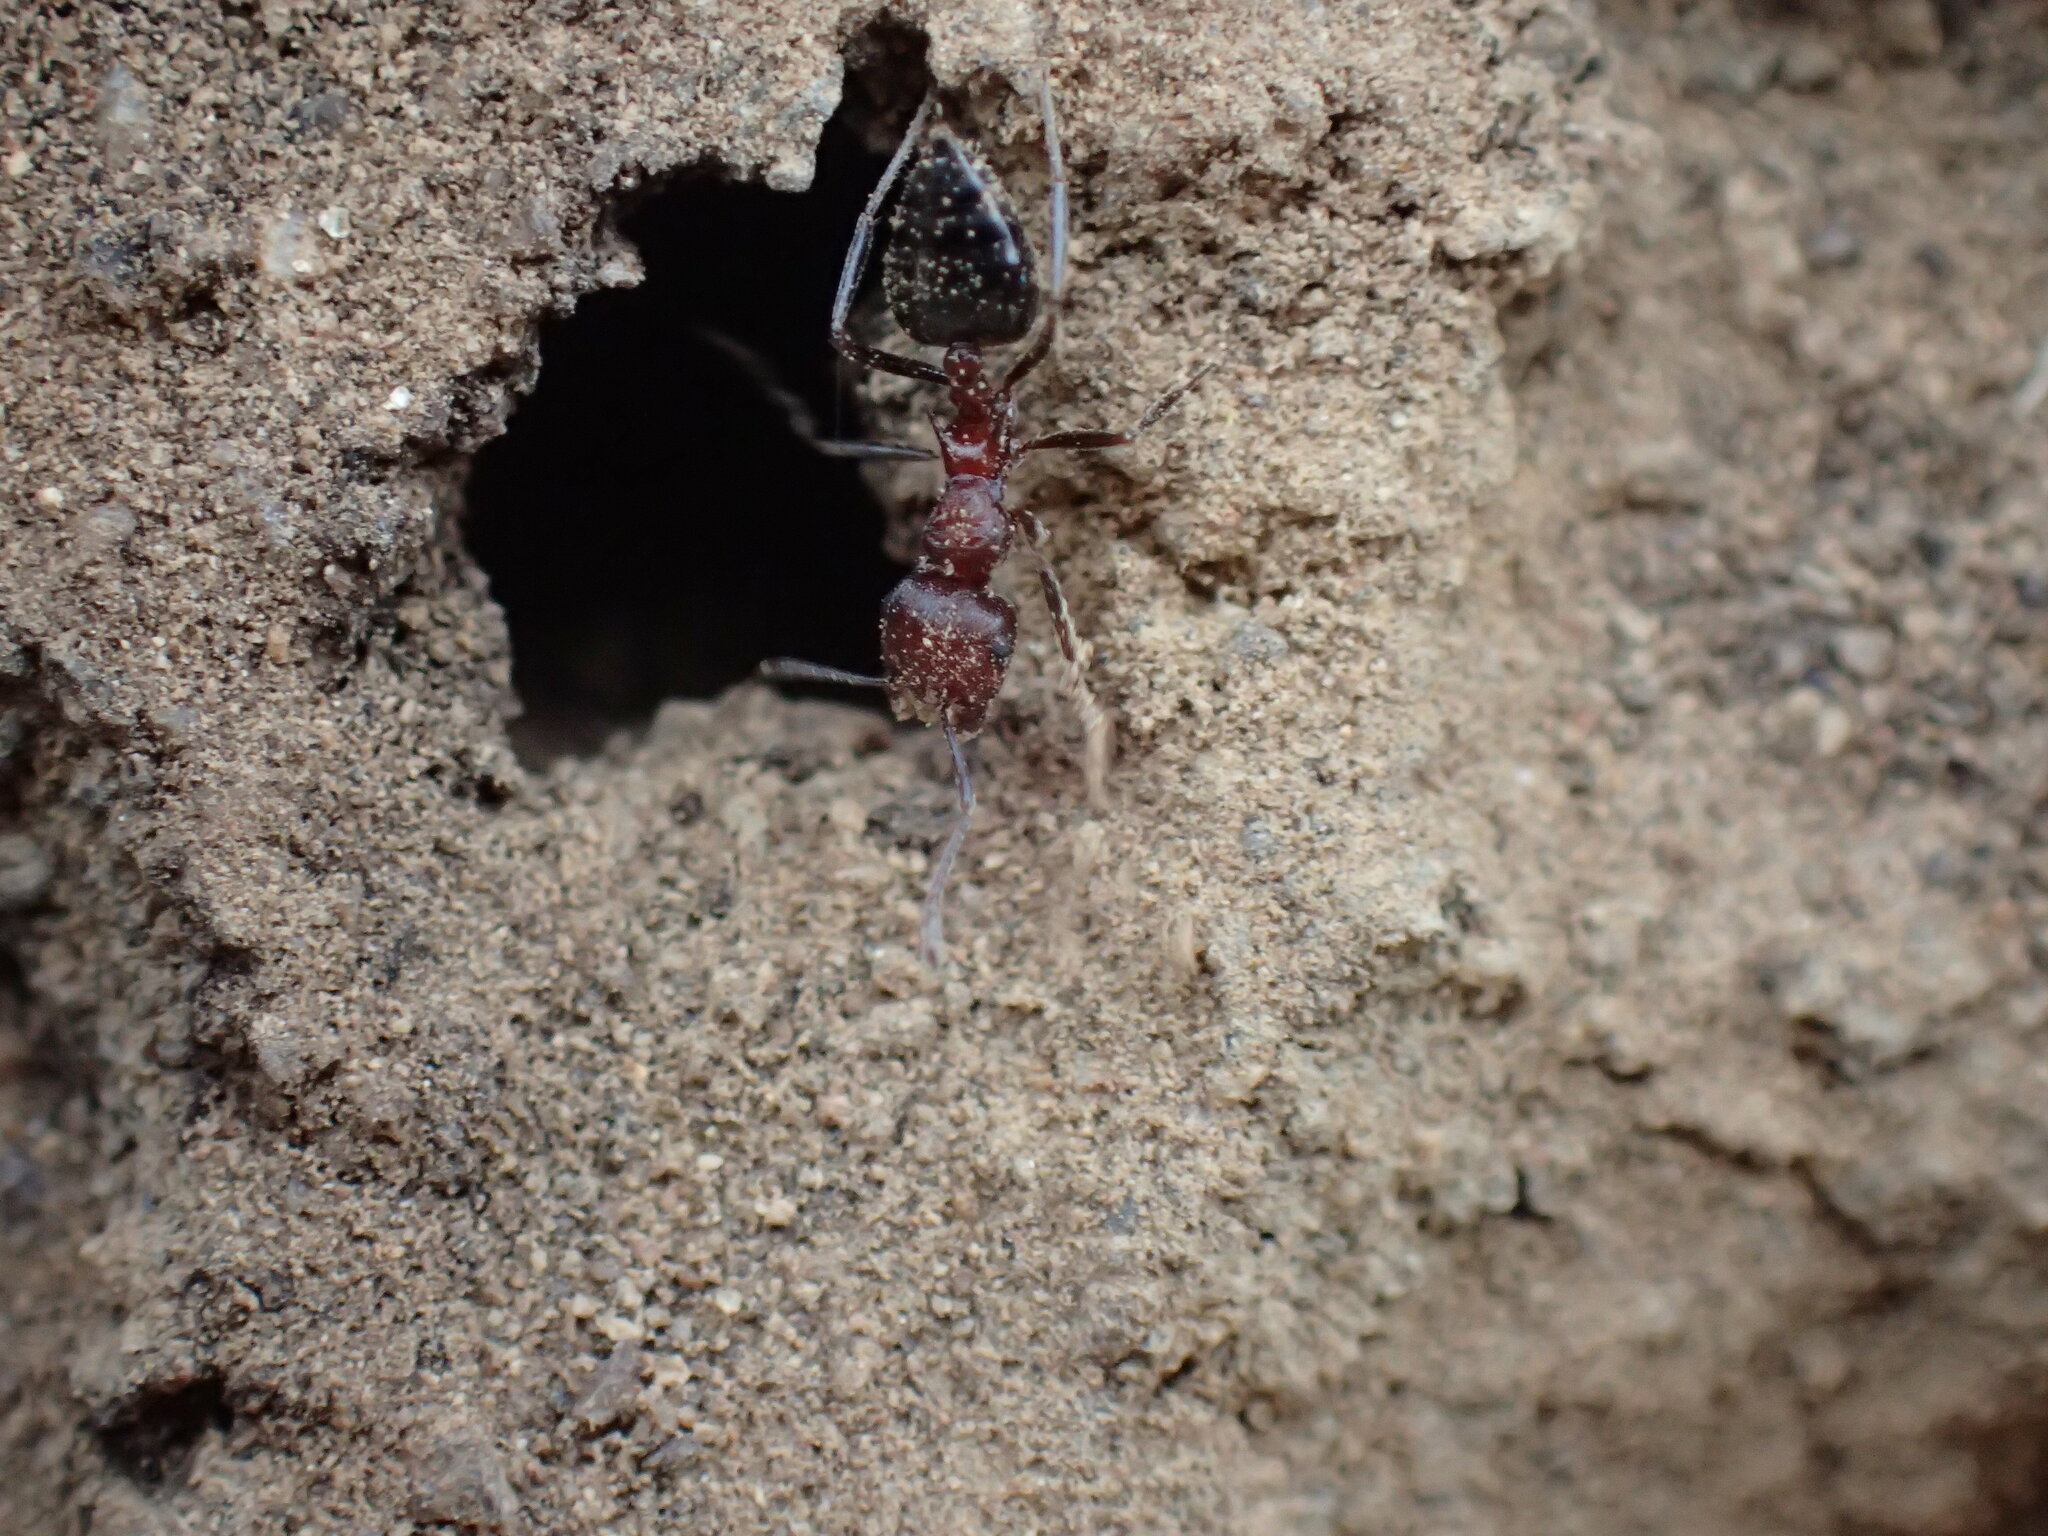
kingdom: Animalia
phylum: Arthropoda
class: Insecta
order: Hymenoptera
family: Formicidae
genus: Crematogaster
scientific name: Crematogaster melanogaster
